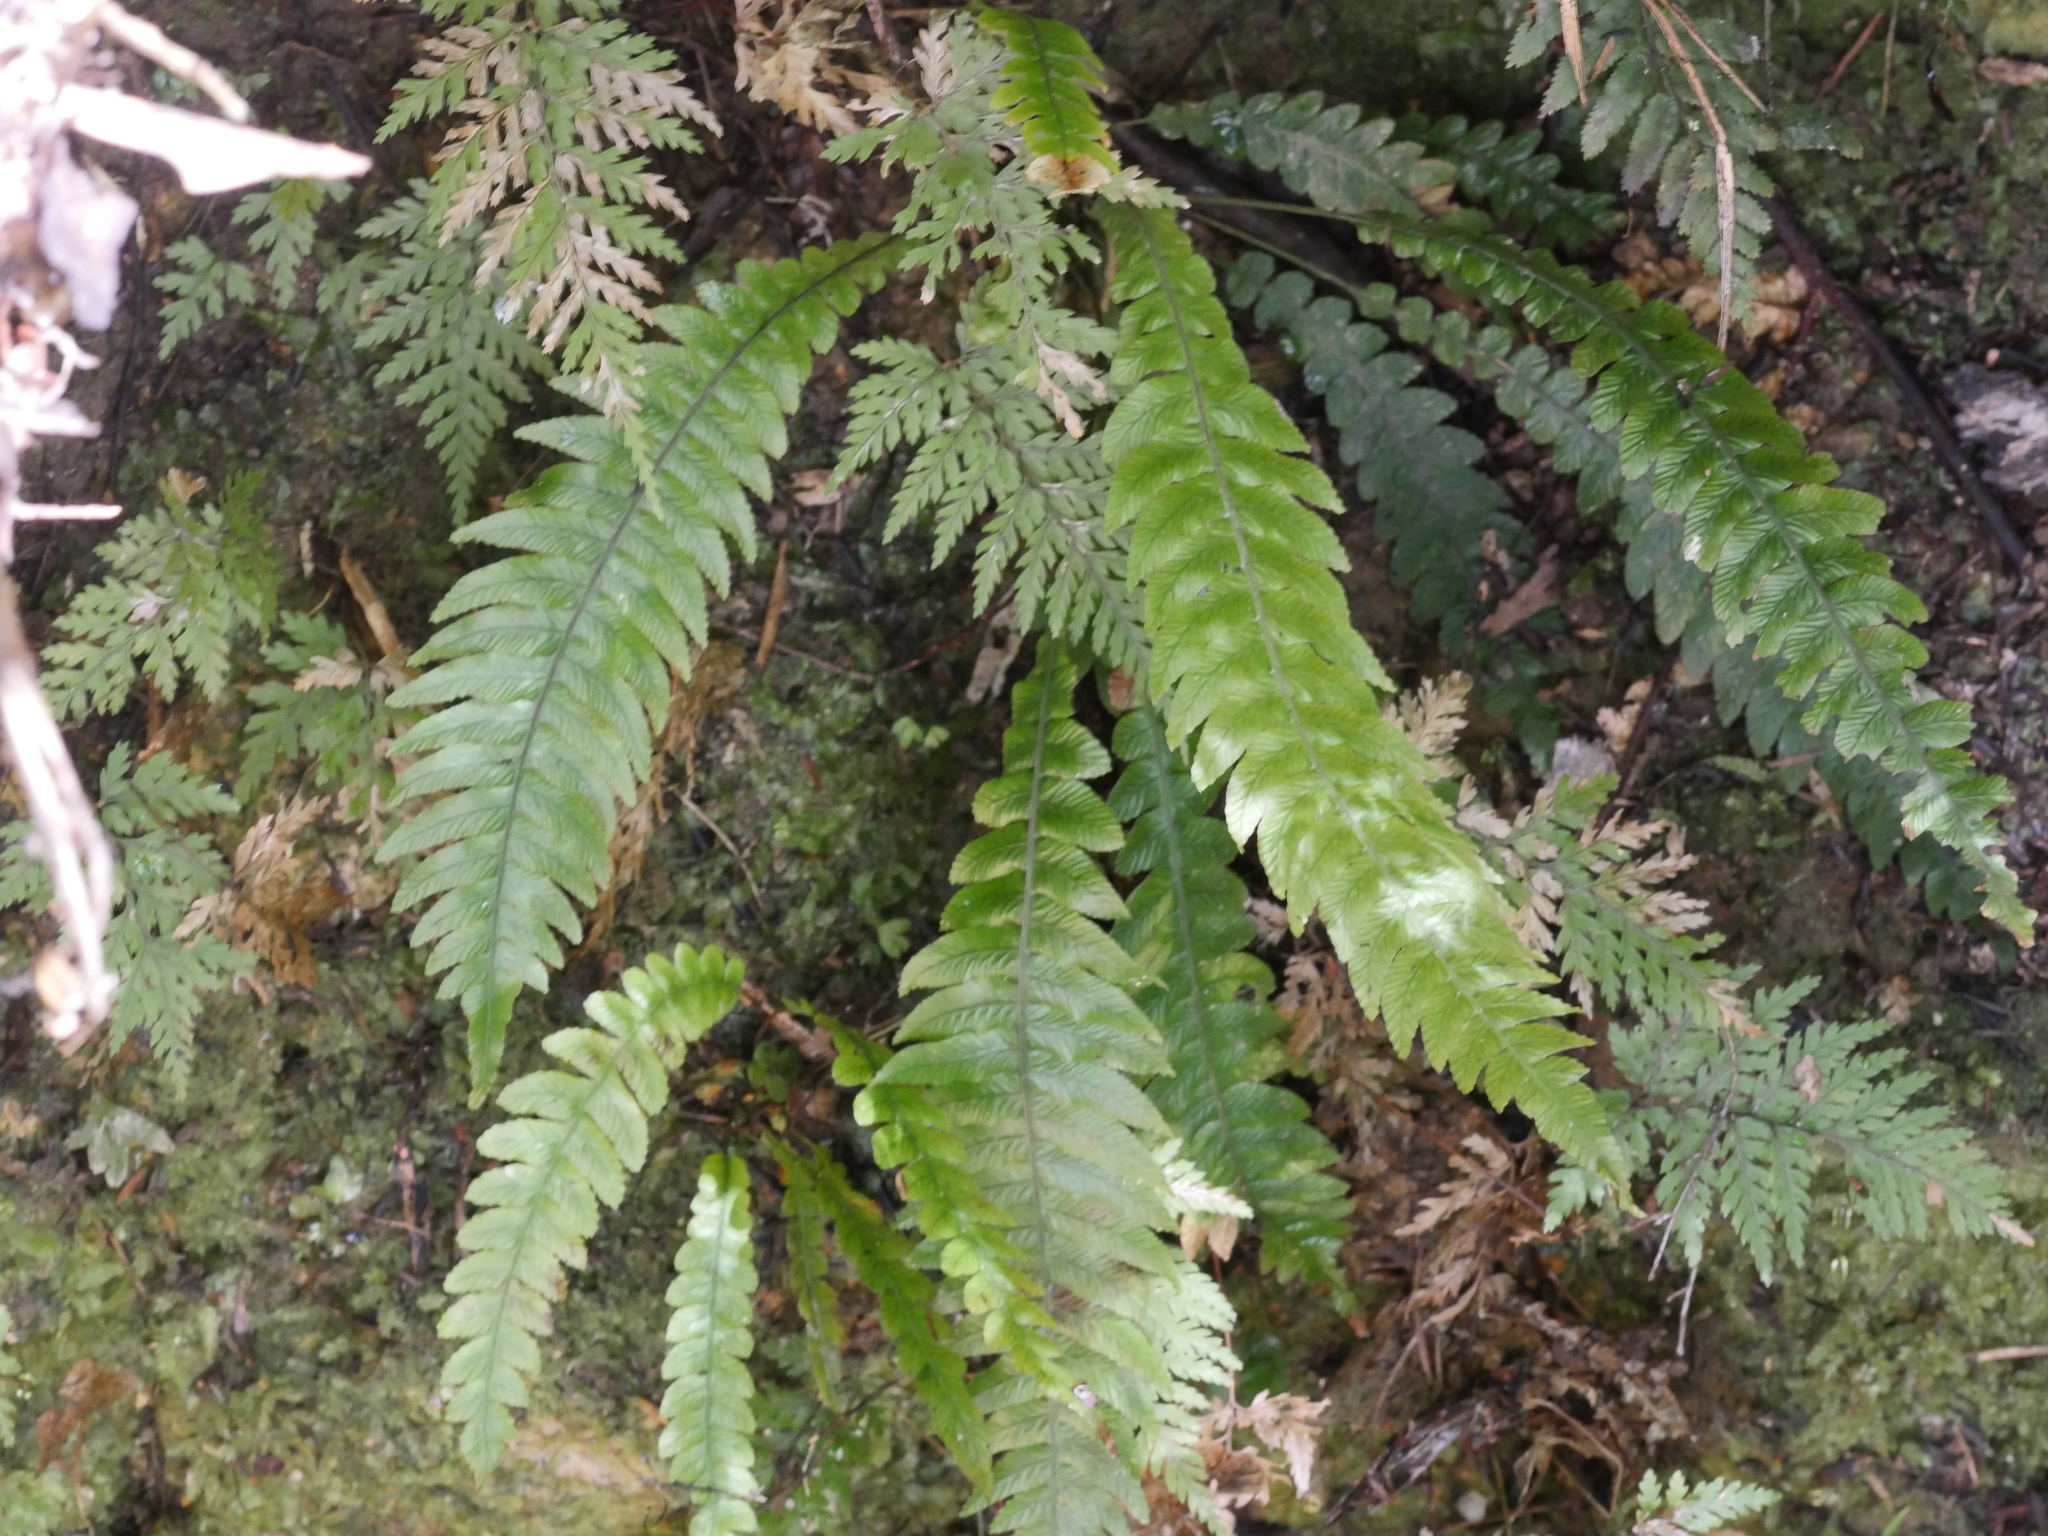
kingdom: Plantae
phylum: Tracheophyta
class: Polypodiopsida
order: Polypodiales
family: Blechnaceae
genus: Austroblechnum
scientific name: Austroblechnum lanceolatum
